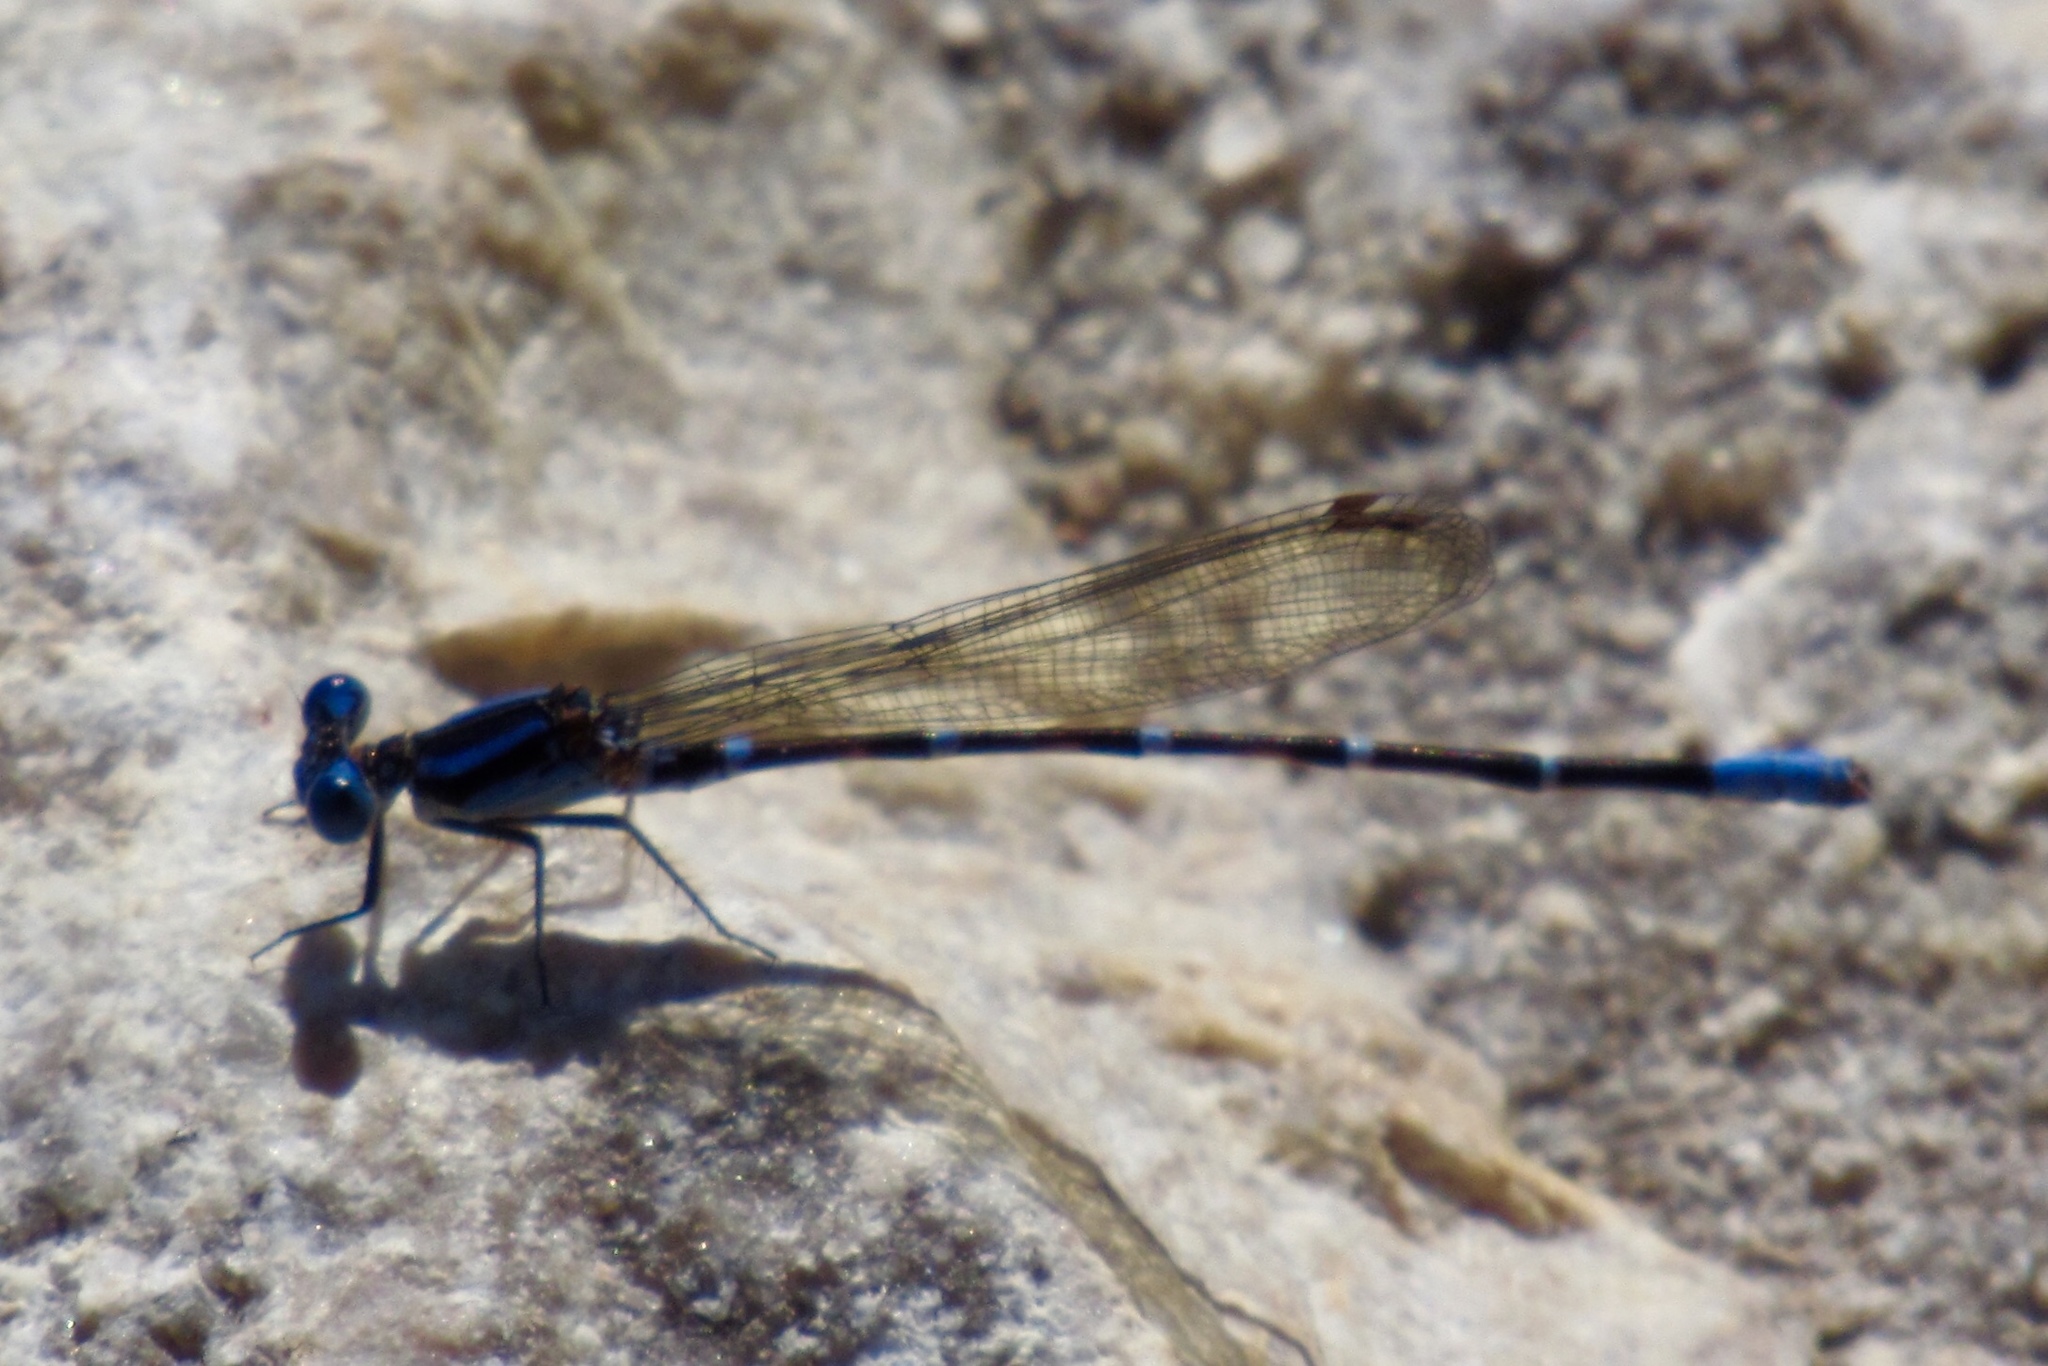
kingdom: Animalia
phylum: Arthropoda
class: Insecta
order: Odonata
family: Coenagrionidae
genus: Argia
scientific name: Argia sedula
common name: Blue-ringed dancer
